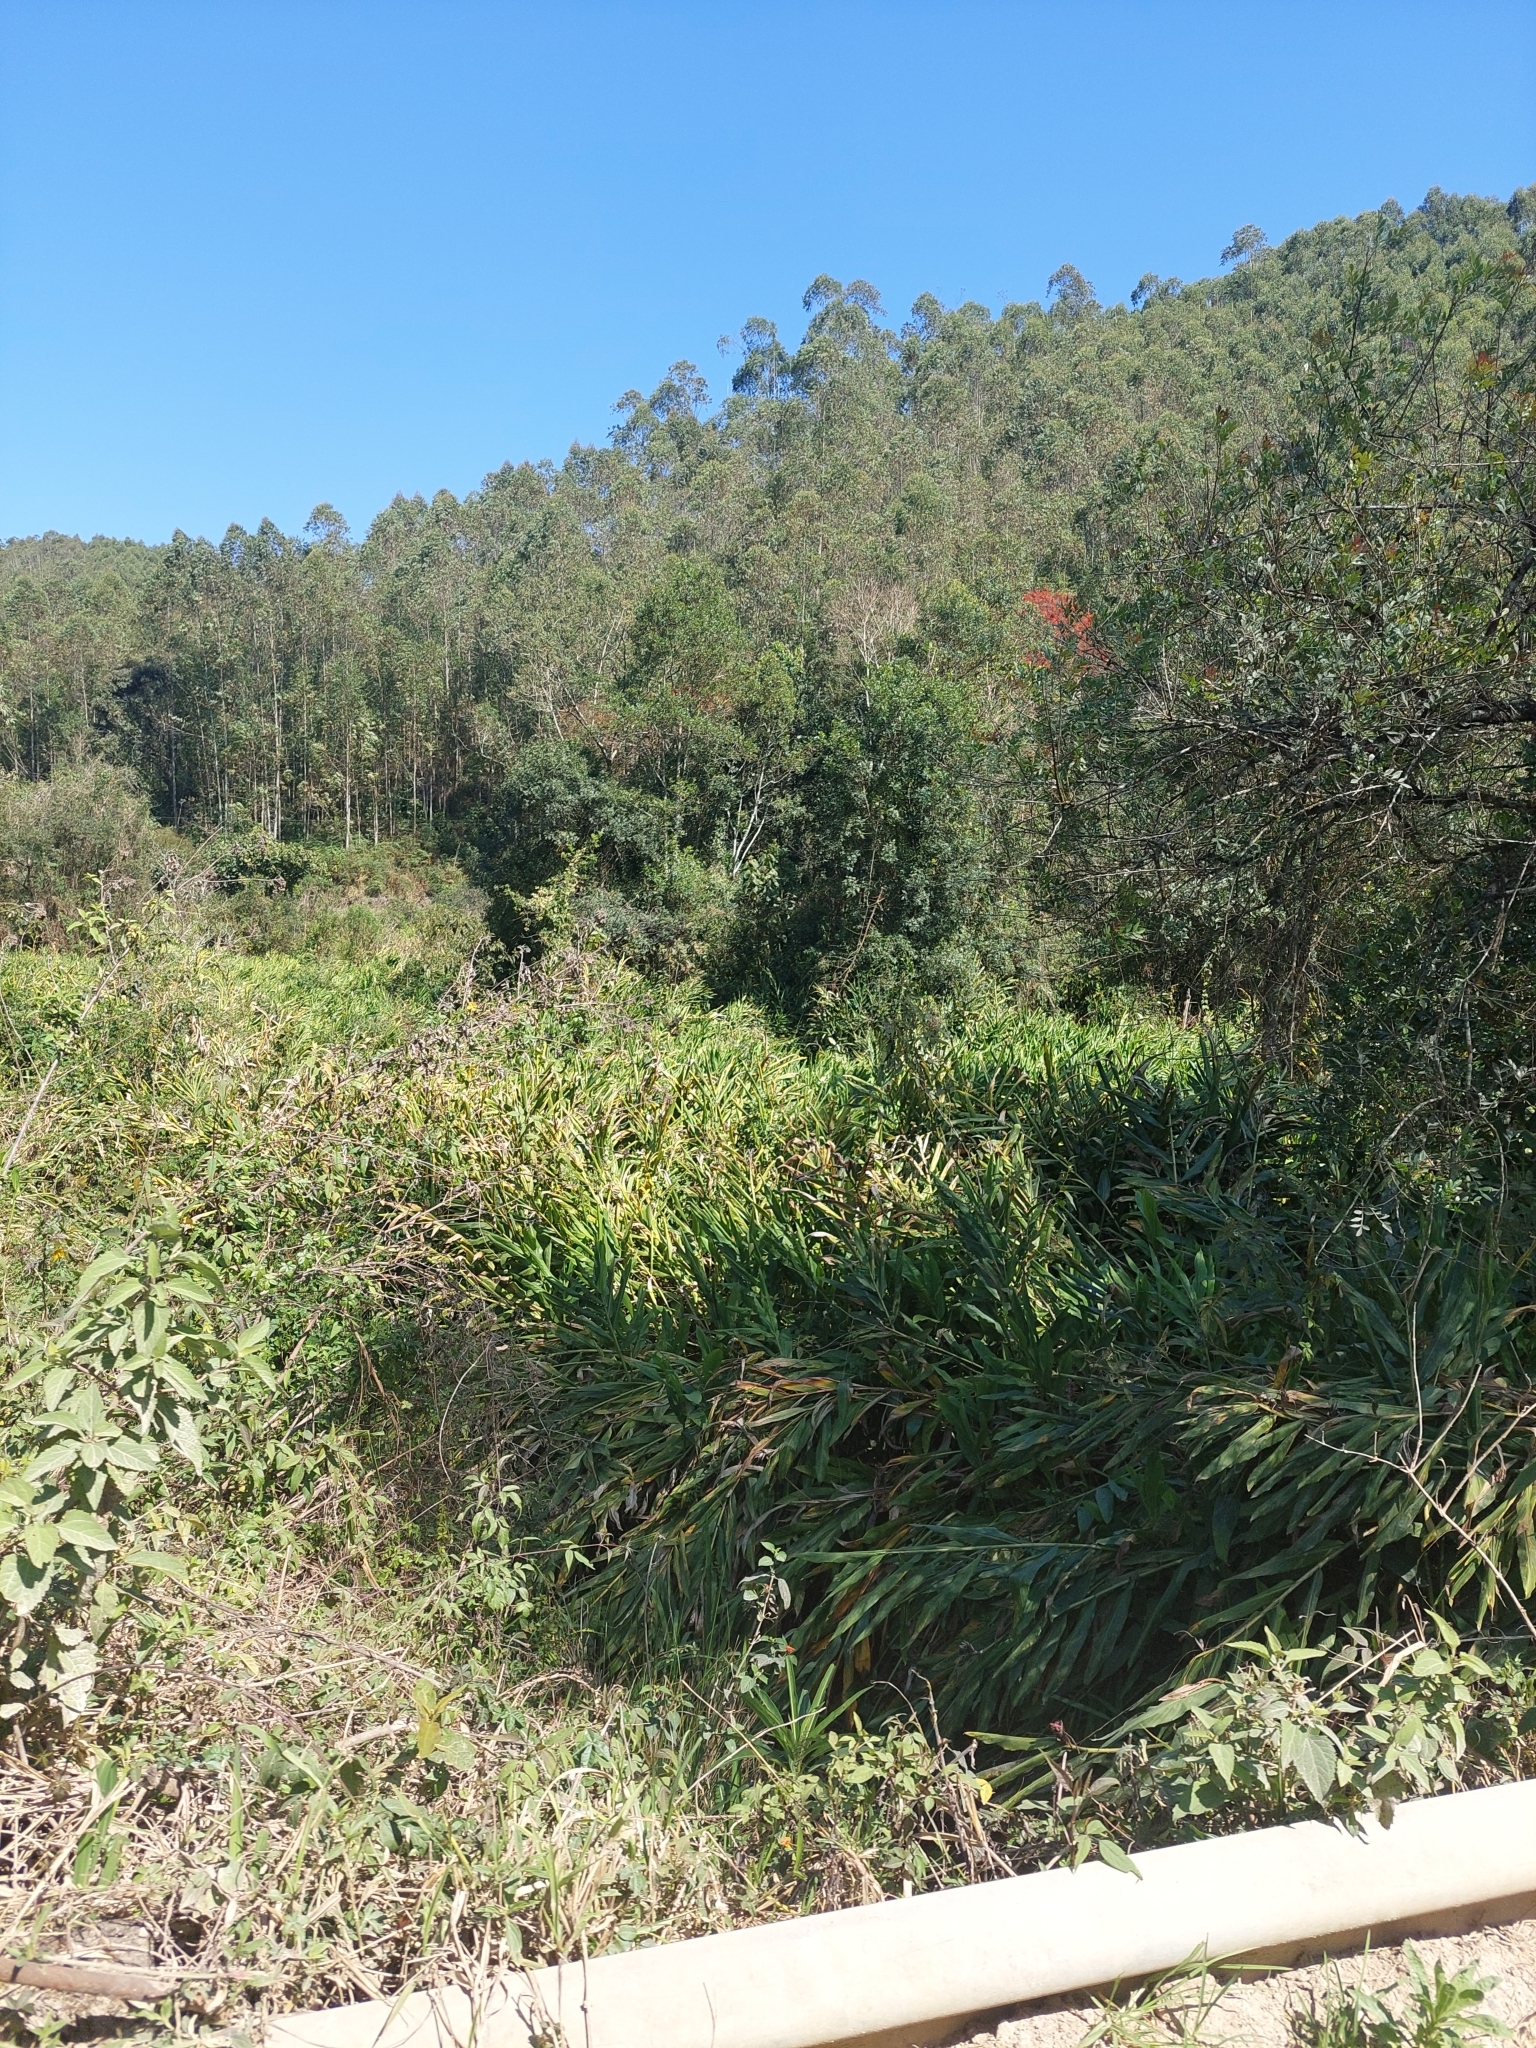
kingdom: Plantae
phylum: Tracheophyta
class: Liliopsida
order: Zingiberales
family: Zingiberaceae
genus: Hedychium
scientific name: Hedychium coronarium
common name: White garland-lily
